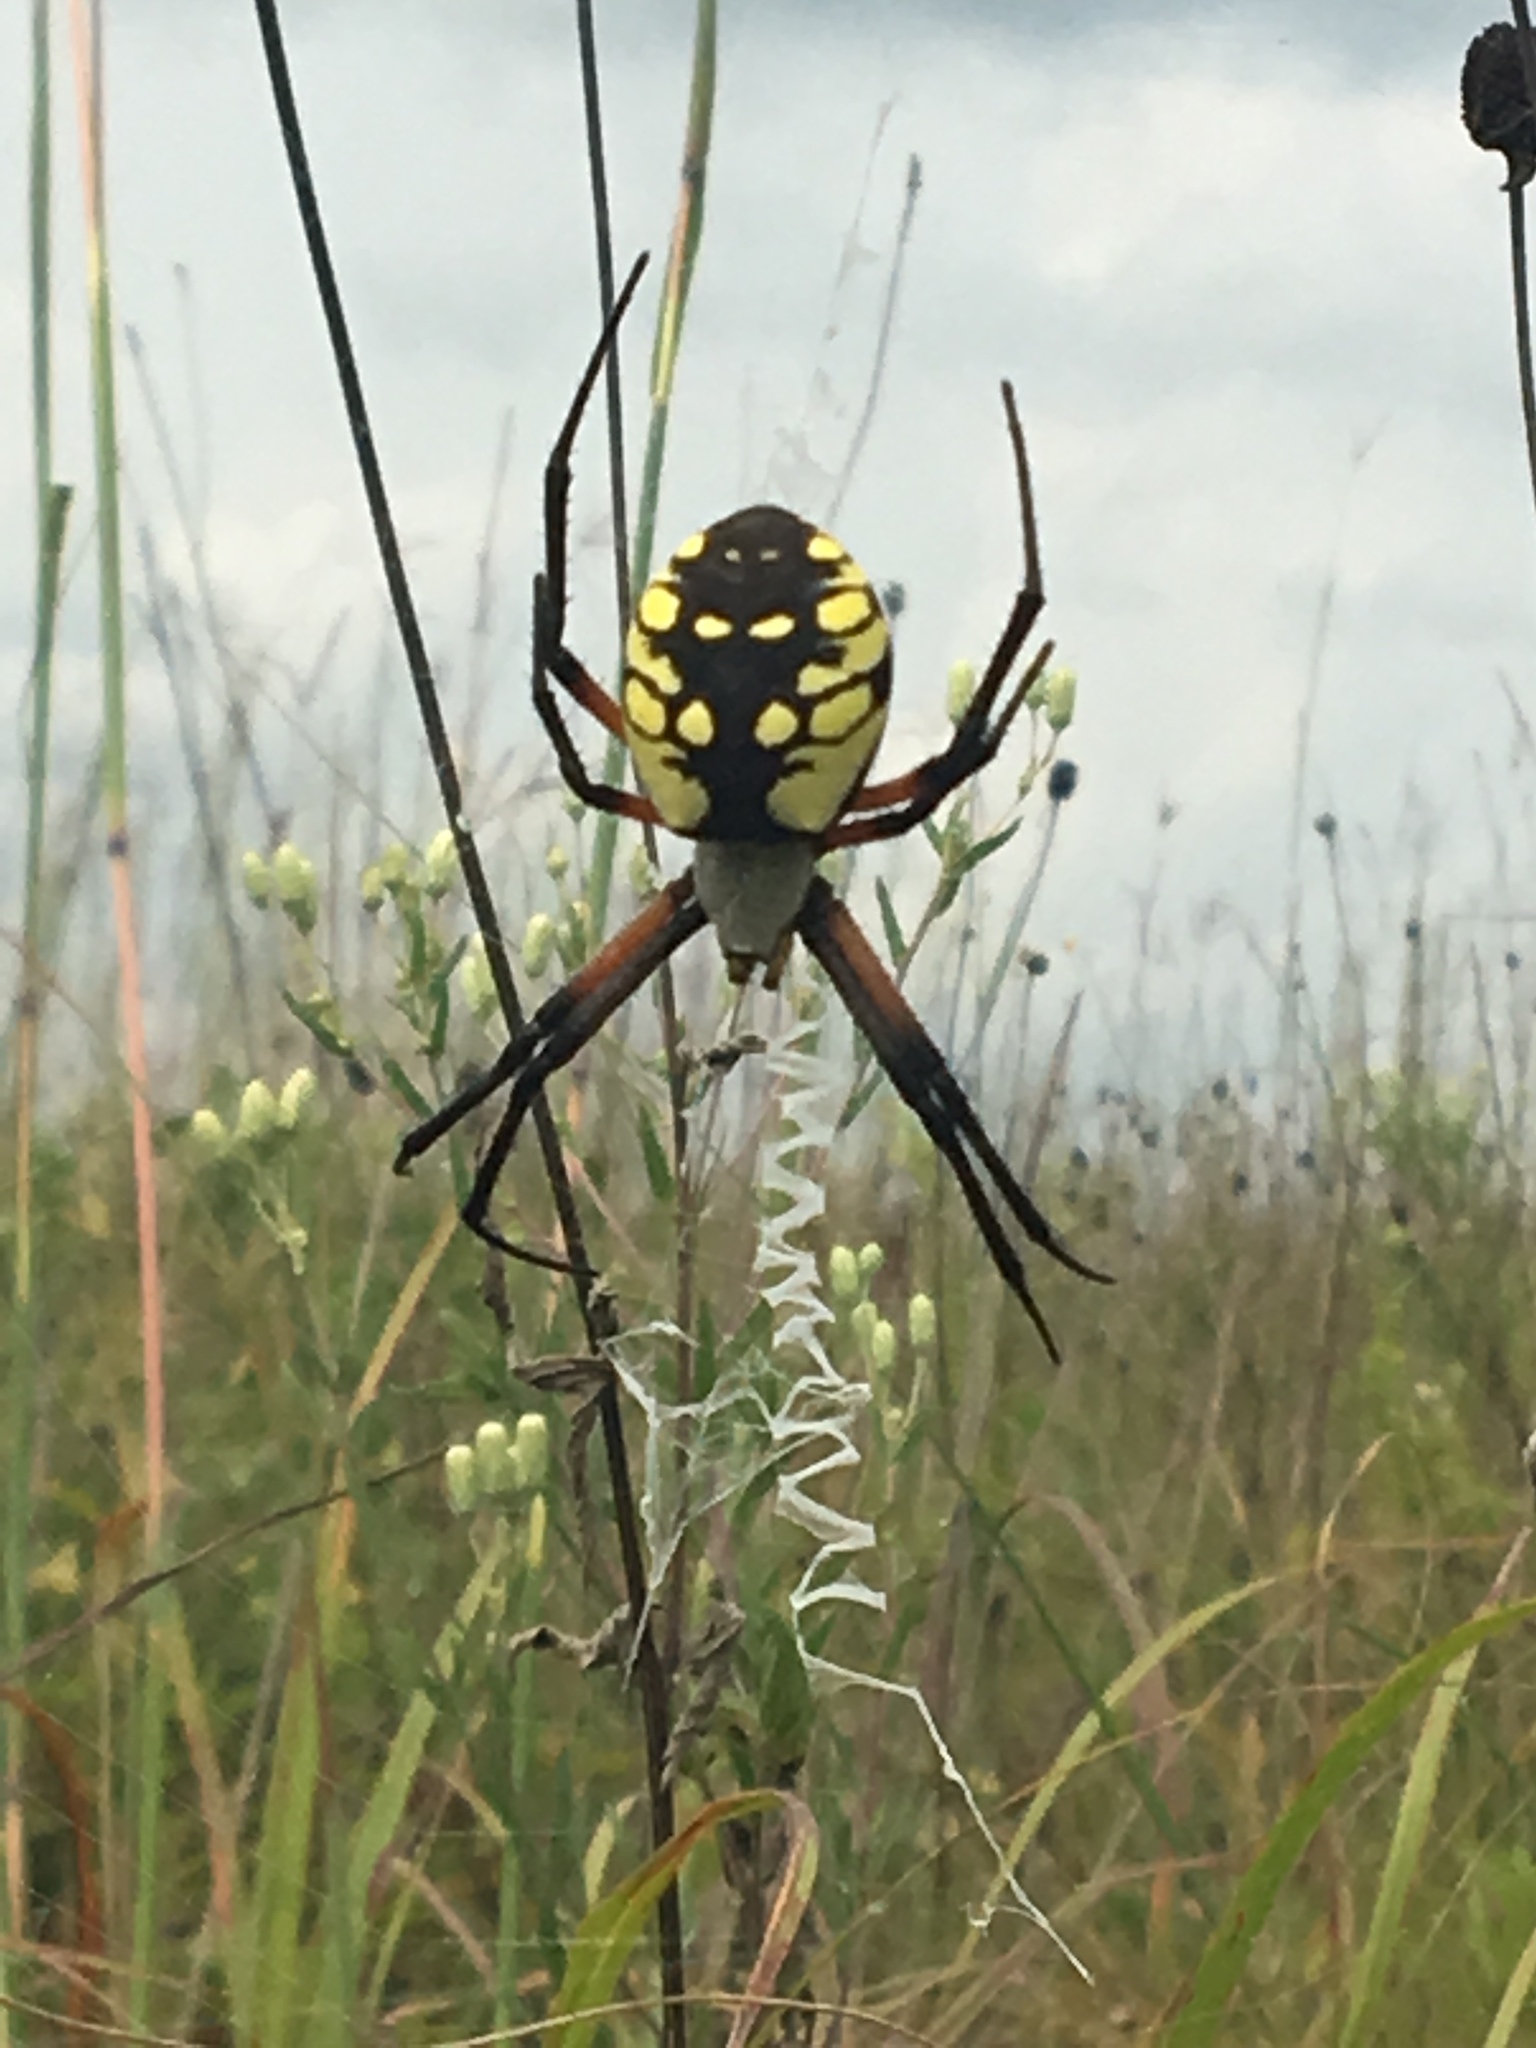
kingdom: Animalia
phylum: Arthropoda
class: Arachnida
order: Araneae
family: Araneidae
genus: Argiope
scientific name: Argiope aurantia
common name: Orb weavers
